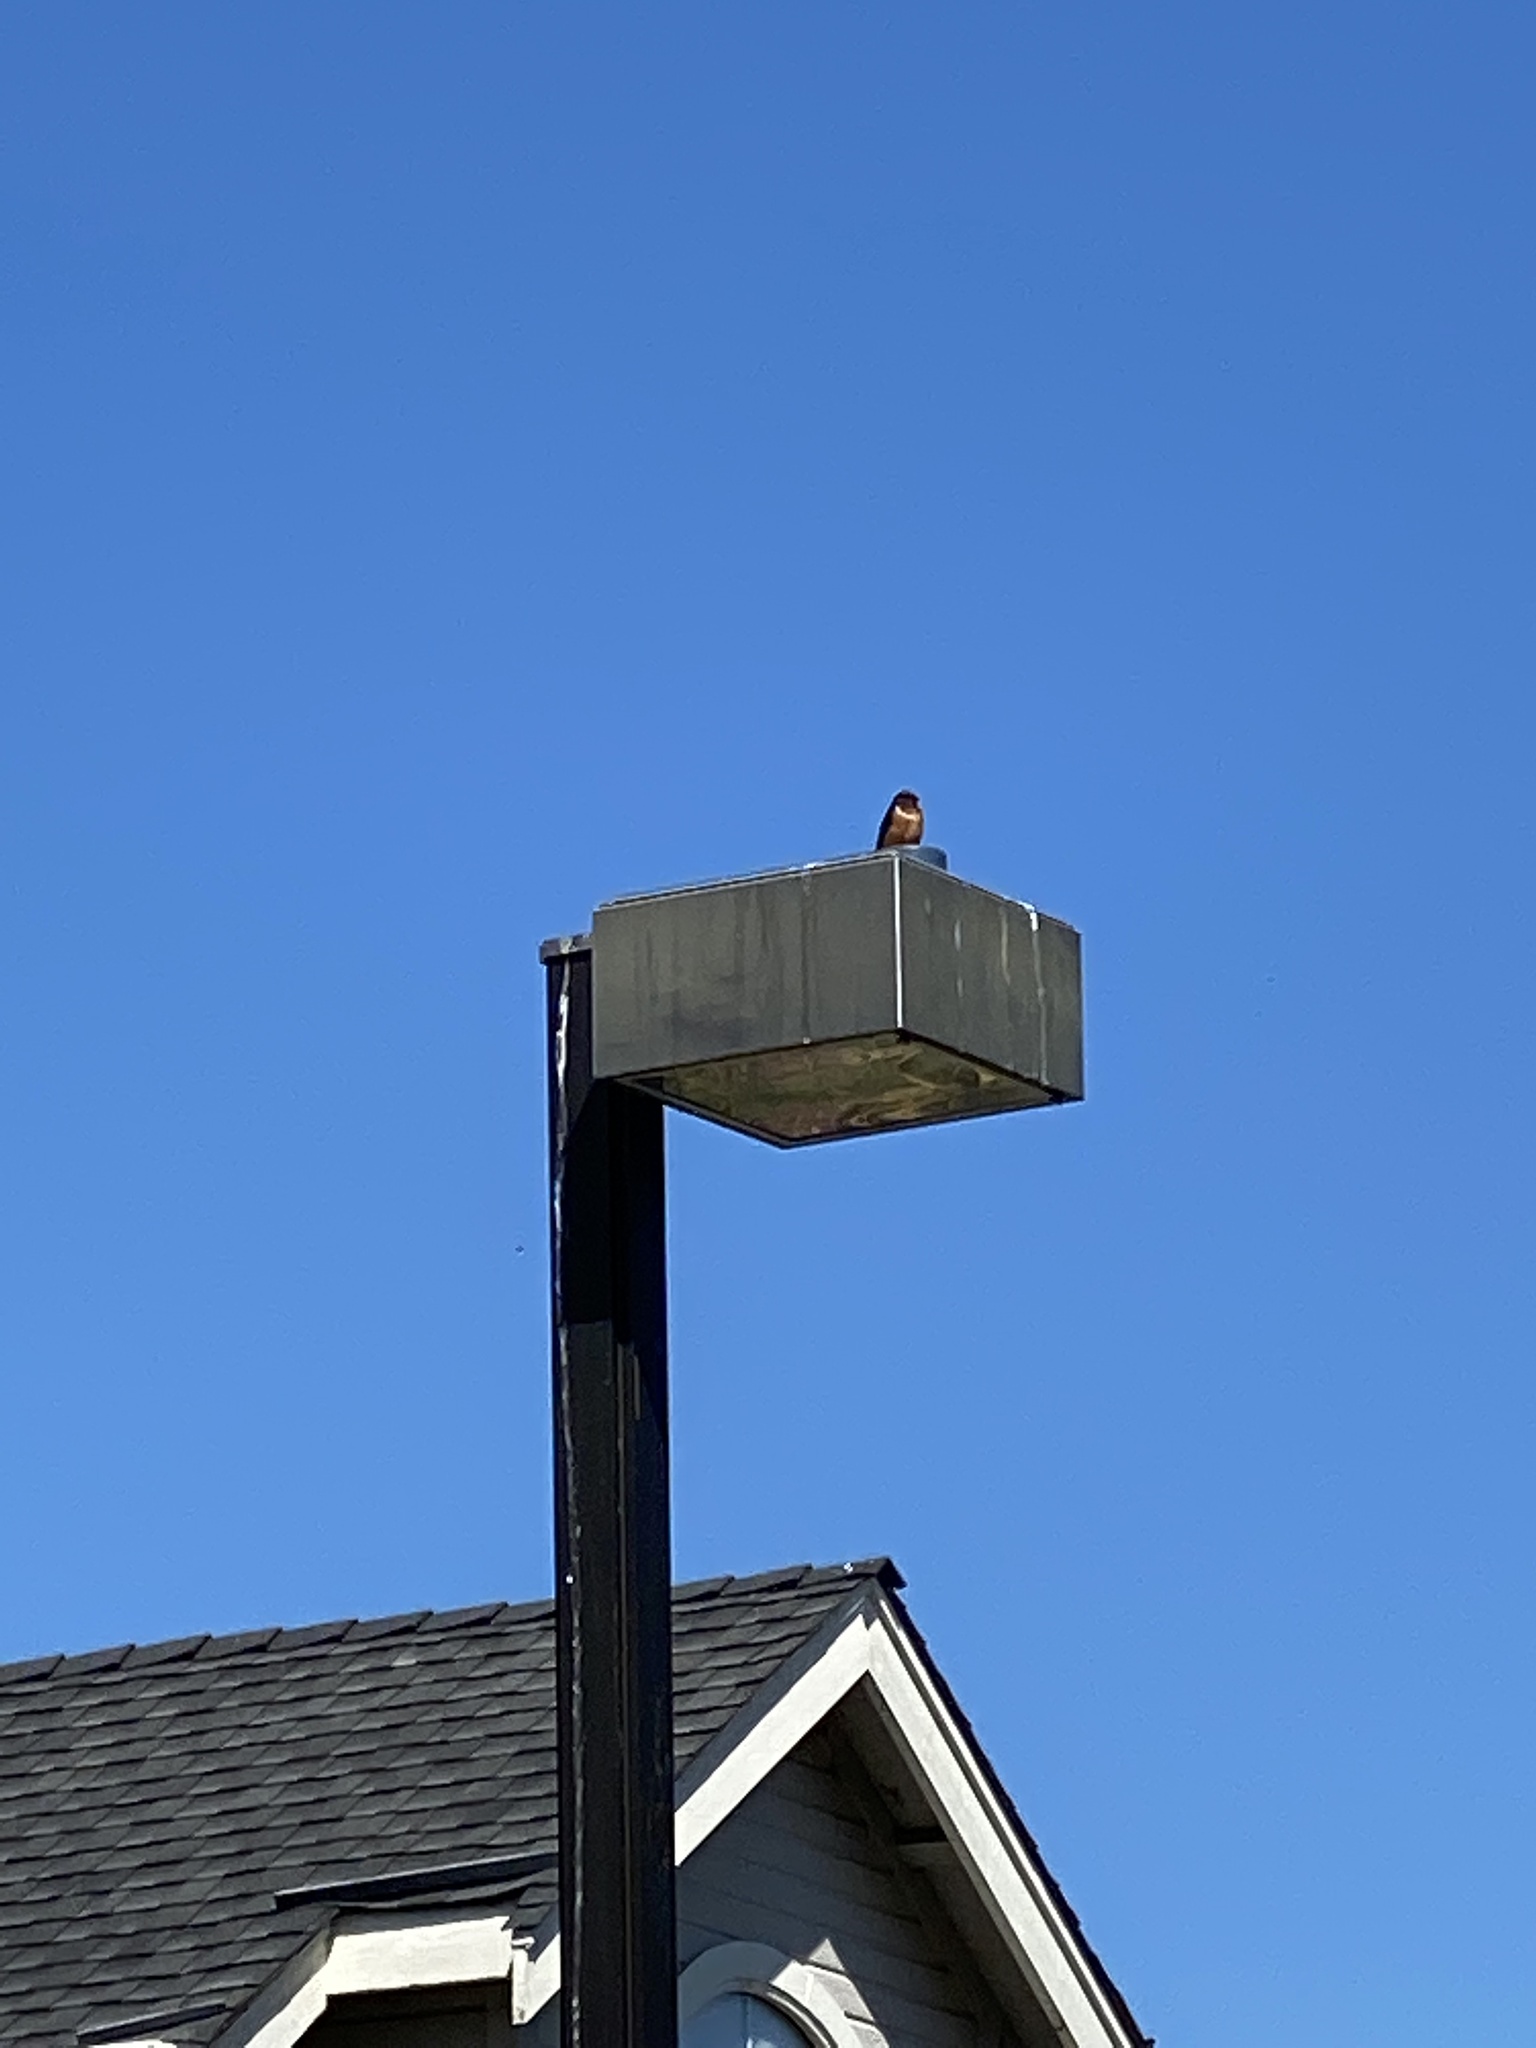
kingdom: Animalia
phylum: Chordata
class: Aves
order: Passeriformes
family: Hirundinidae
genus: Hirundo
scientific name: Hirundo rustica
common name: Barn swallow
